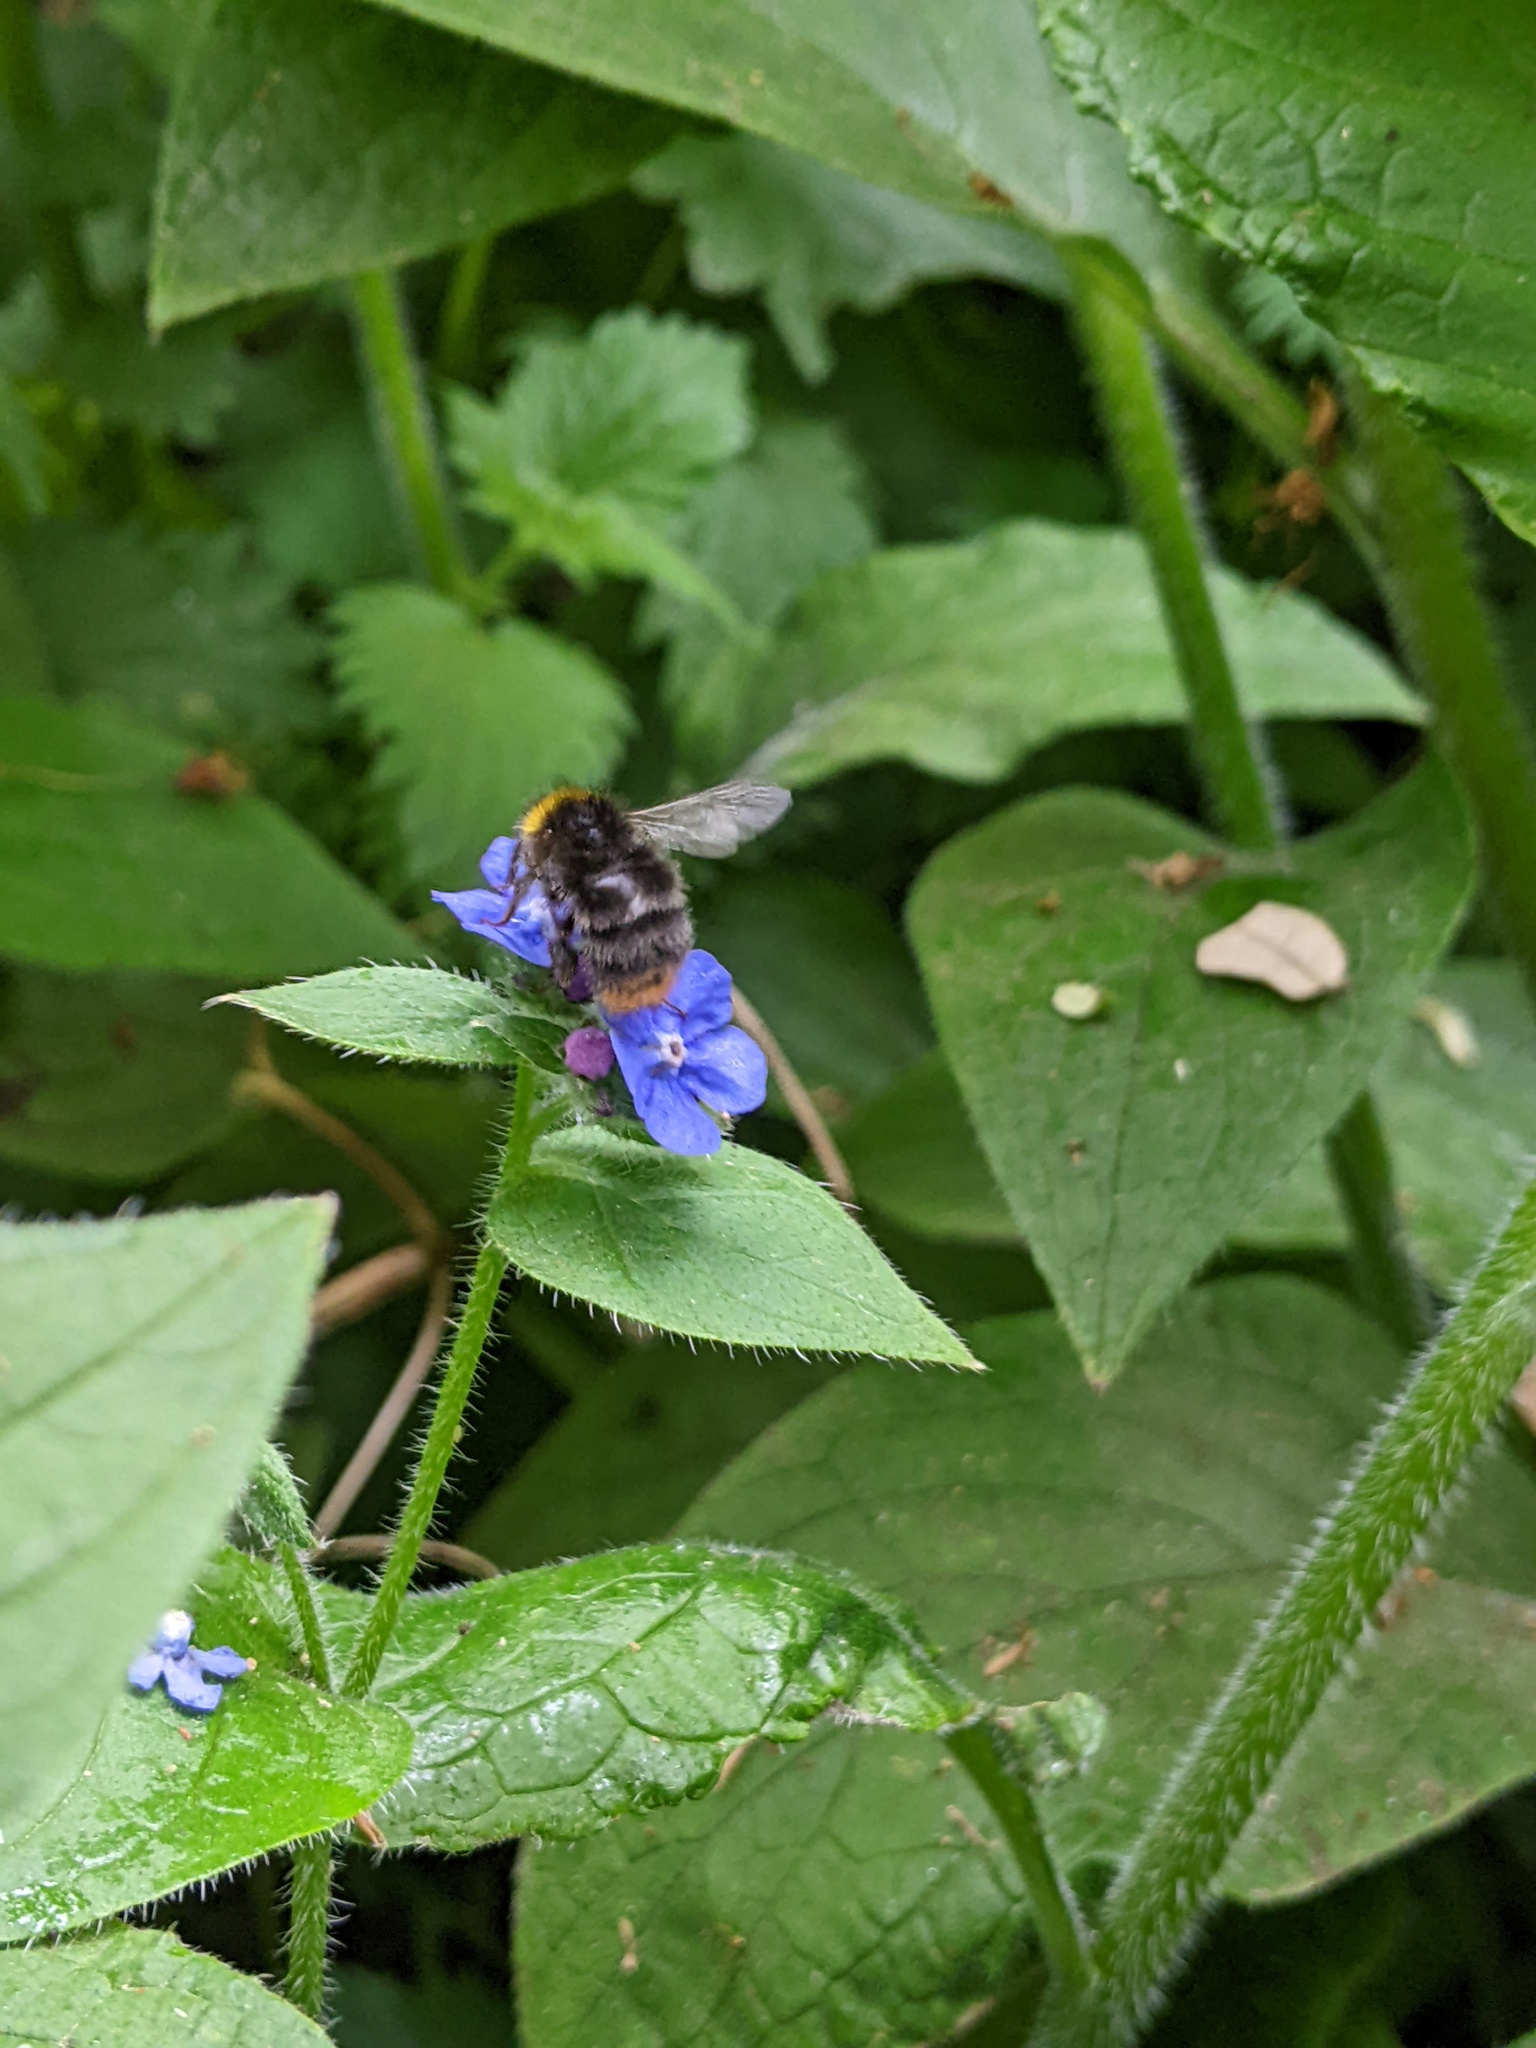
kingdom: Animalia
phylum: Arthropoda
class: Insecta
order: Hymenoptera
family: Apidae
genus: Bombus
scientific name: Bombus pratorum
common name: Early humble-bee
